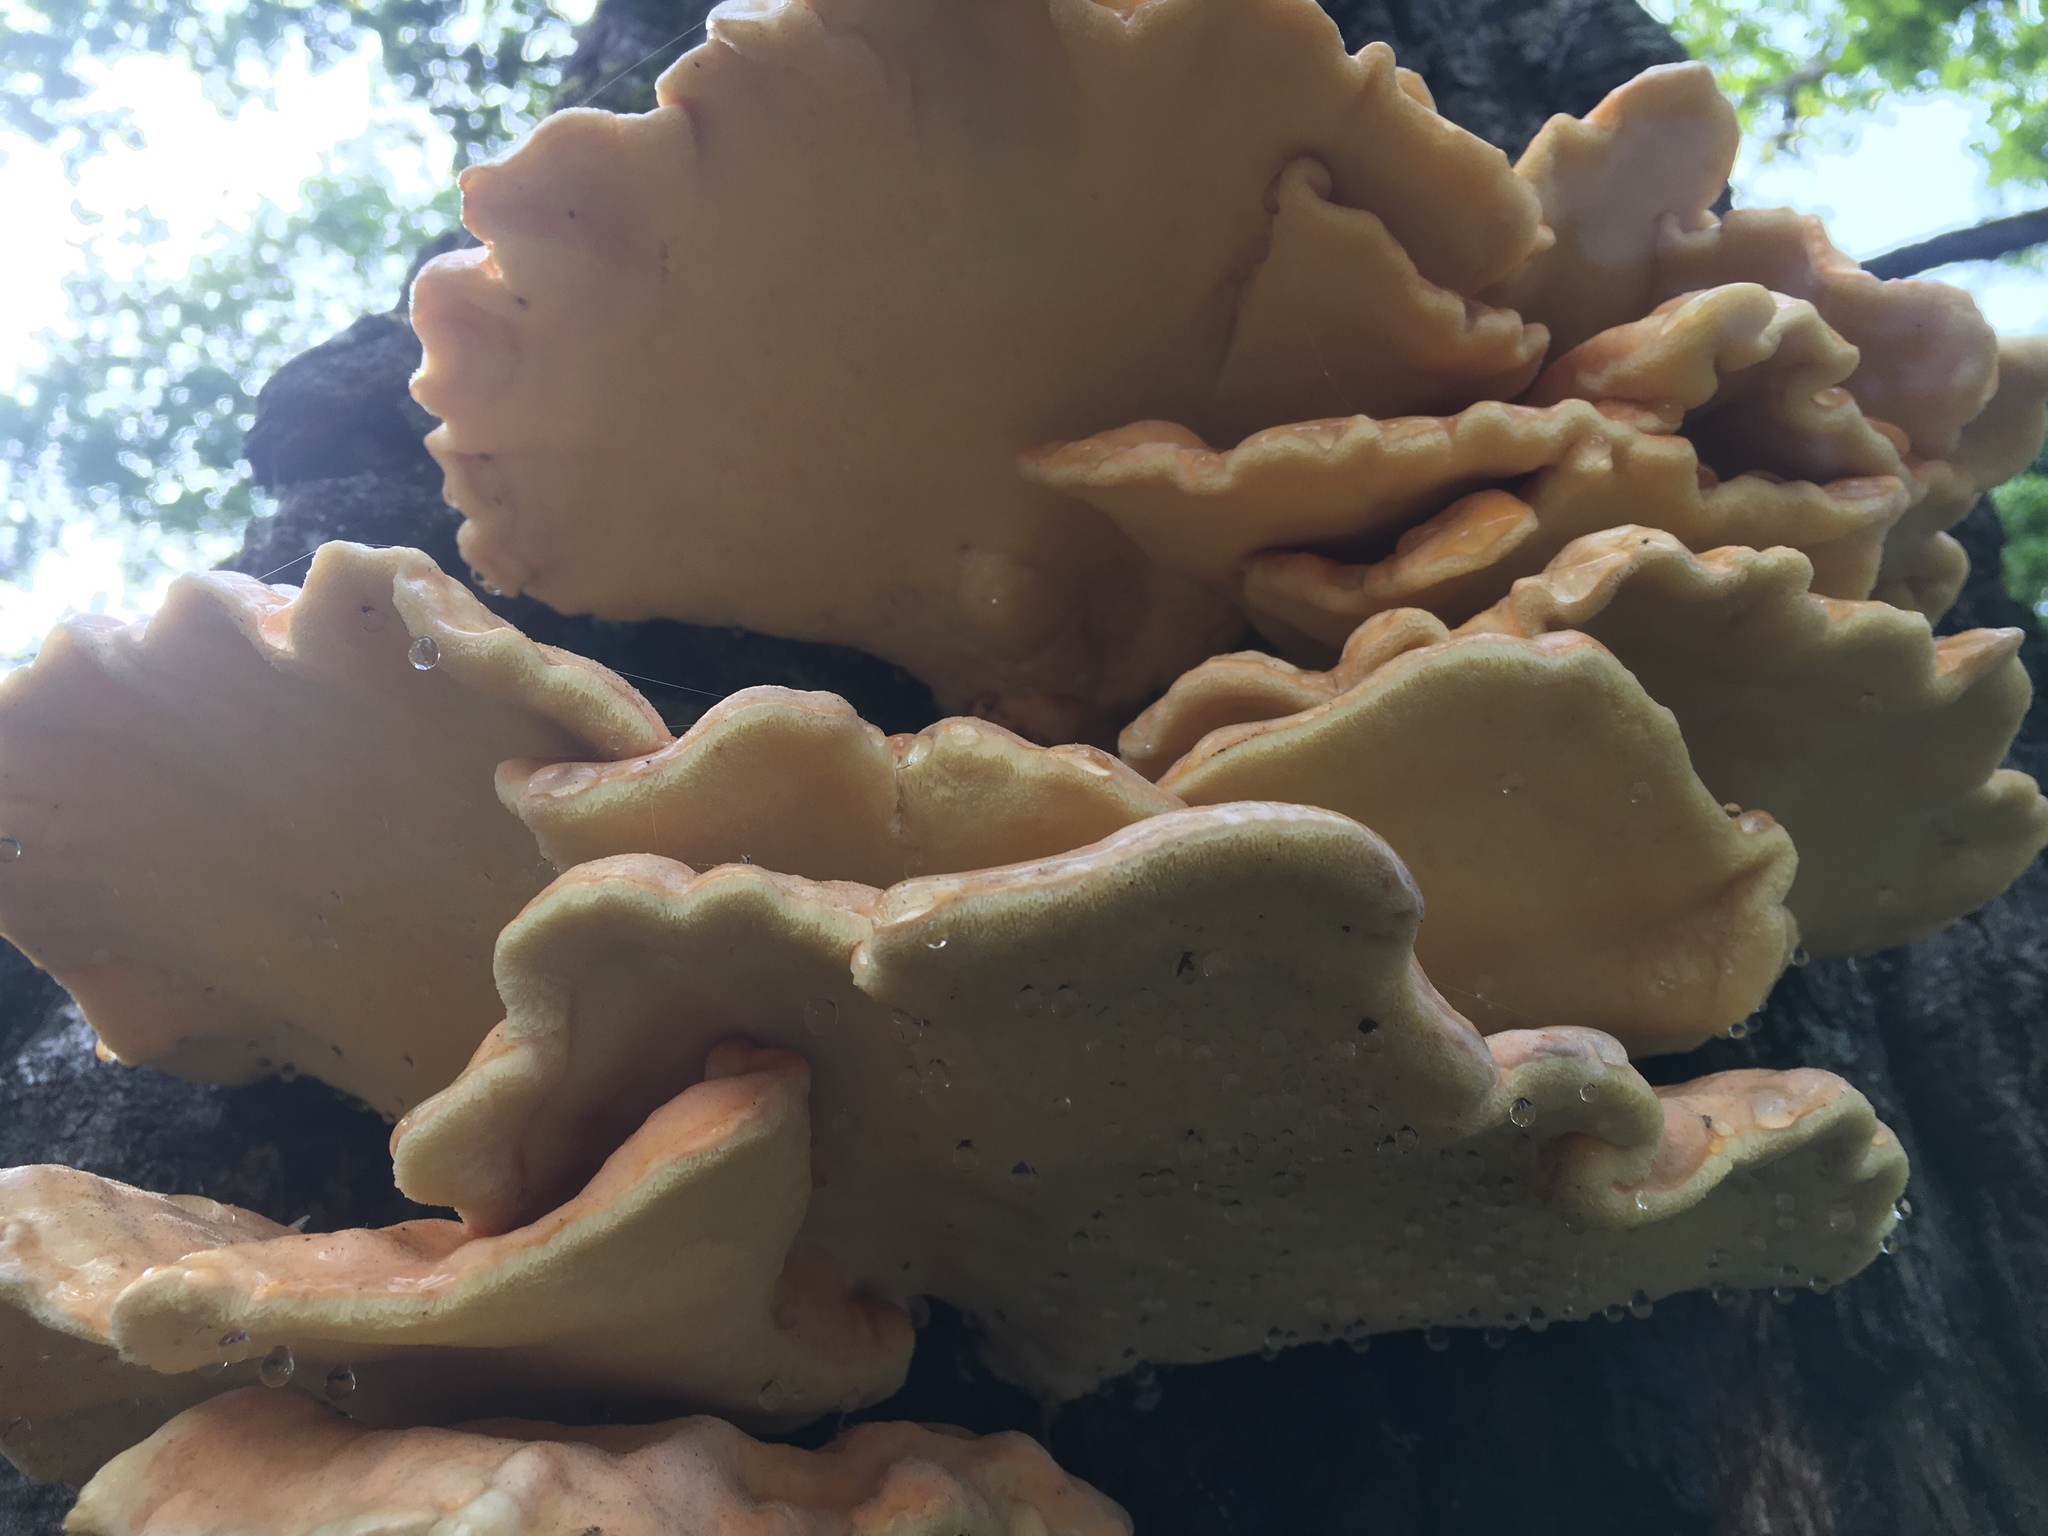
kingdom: Fungi
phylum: Basidiomycota
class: Agaricomycetes
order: Polyporales
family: Laetiporaceae
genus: Laetiporus
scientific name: Laetiporus sulphureus
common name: Chicken of the woods
